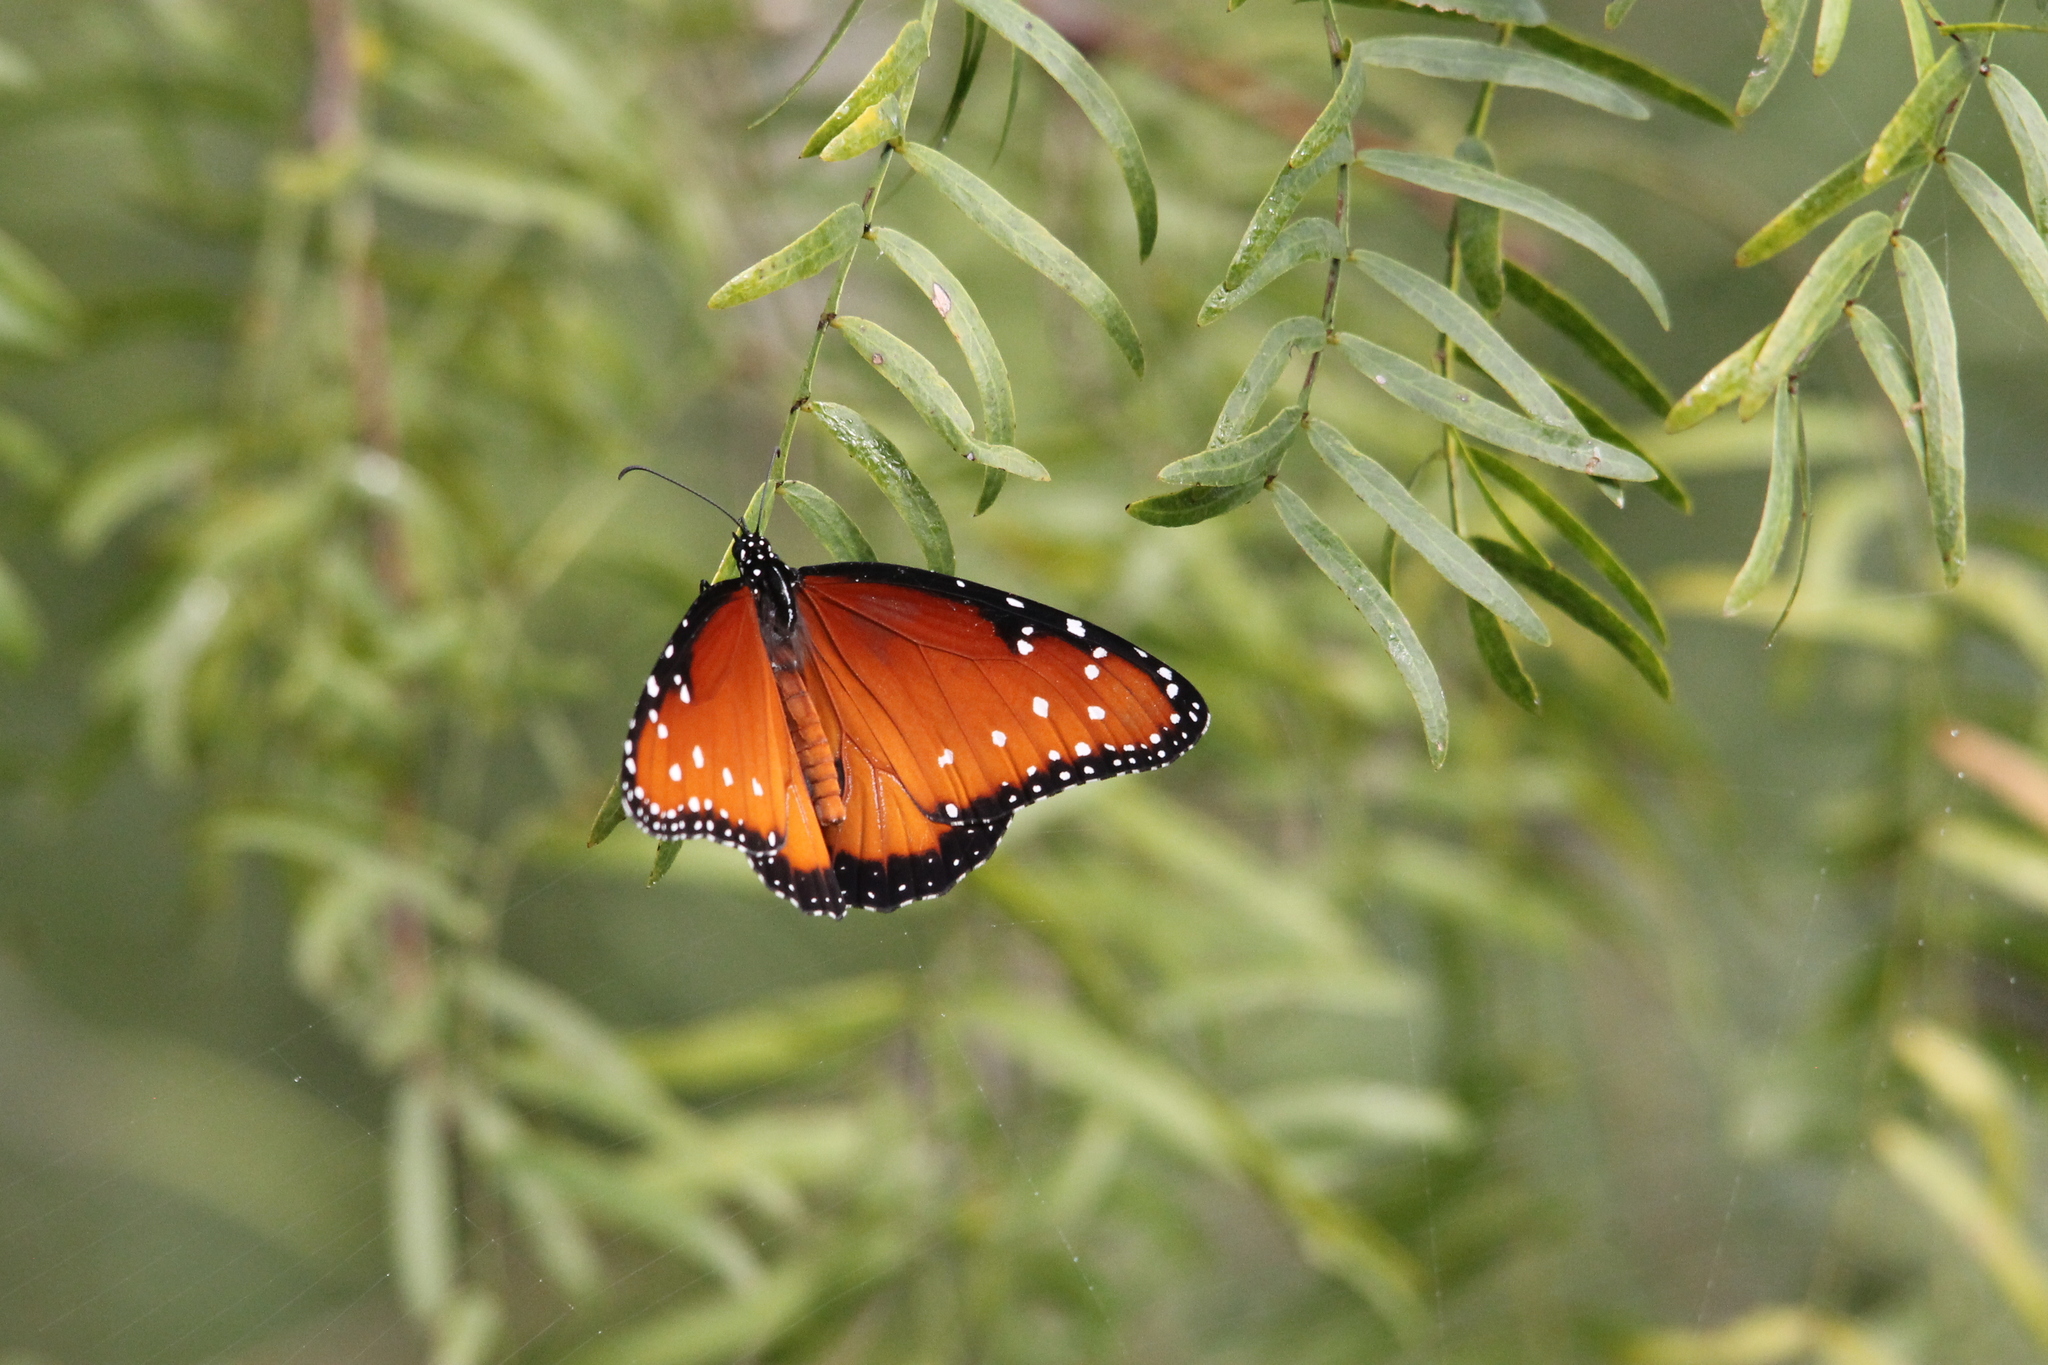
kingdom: Animalia
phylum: Arthropoda
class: Insecta
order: Lepidoptera
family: Nymphalidae
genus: Danaus
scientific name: Danaus gilippus
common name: Queen
